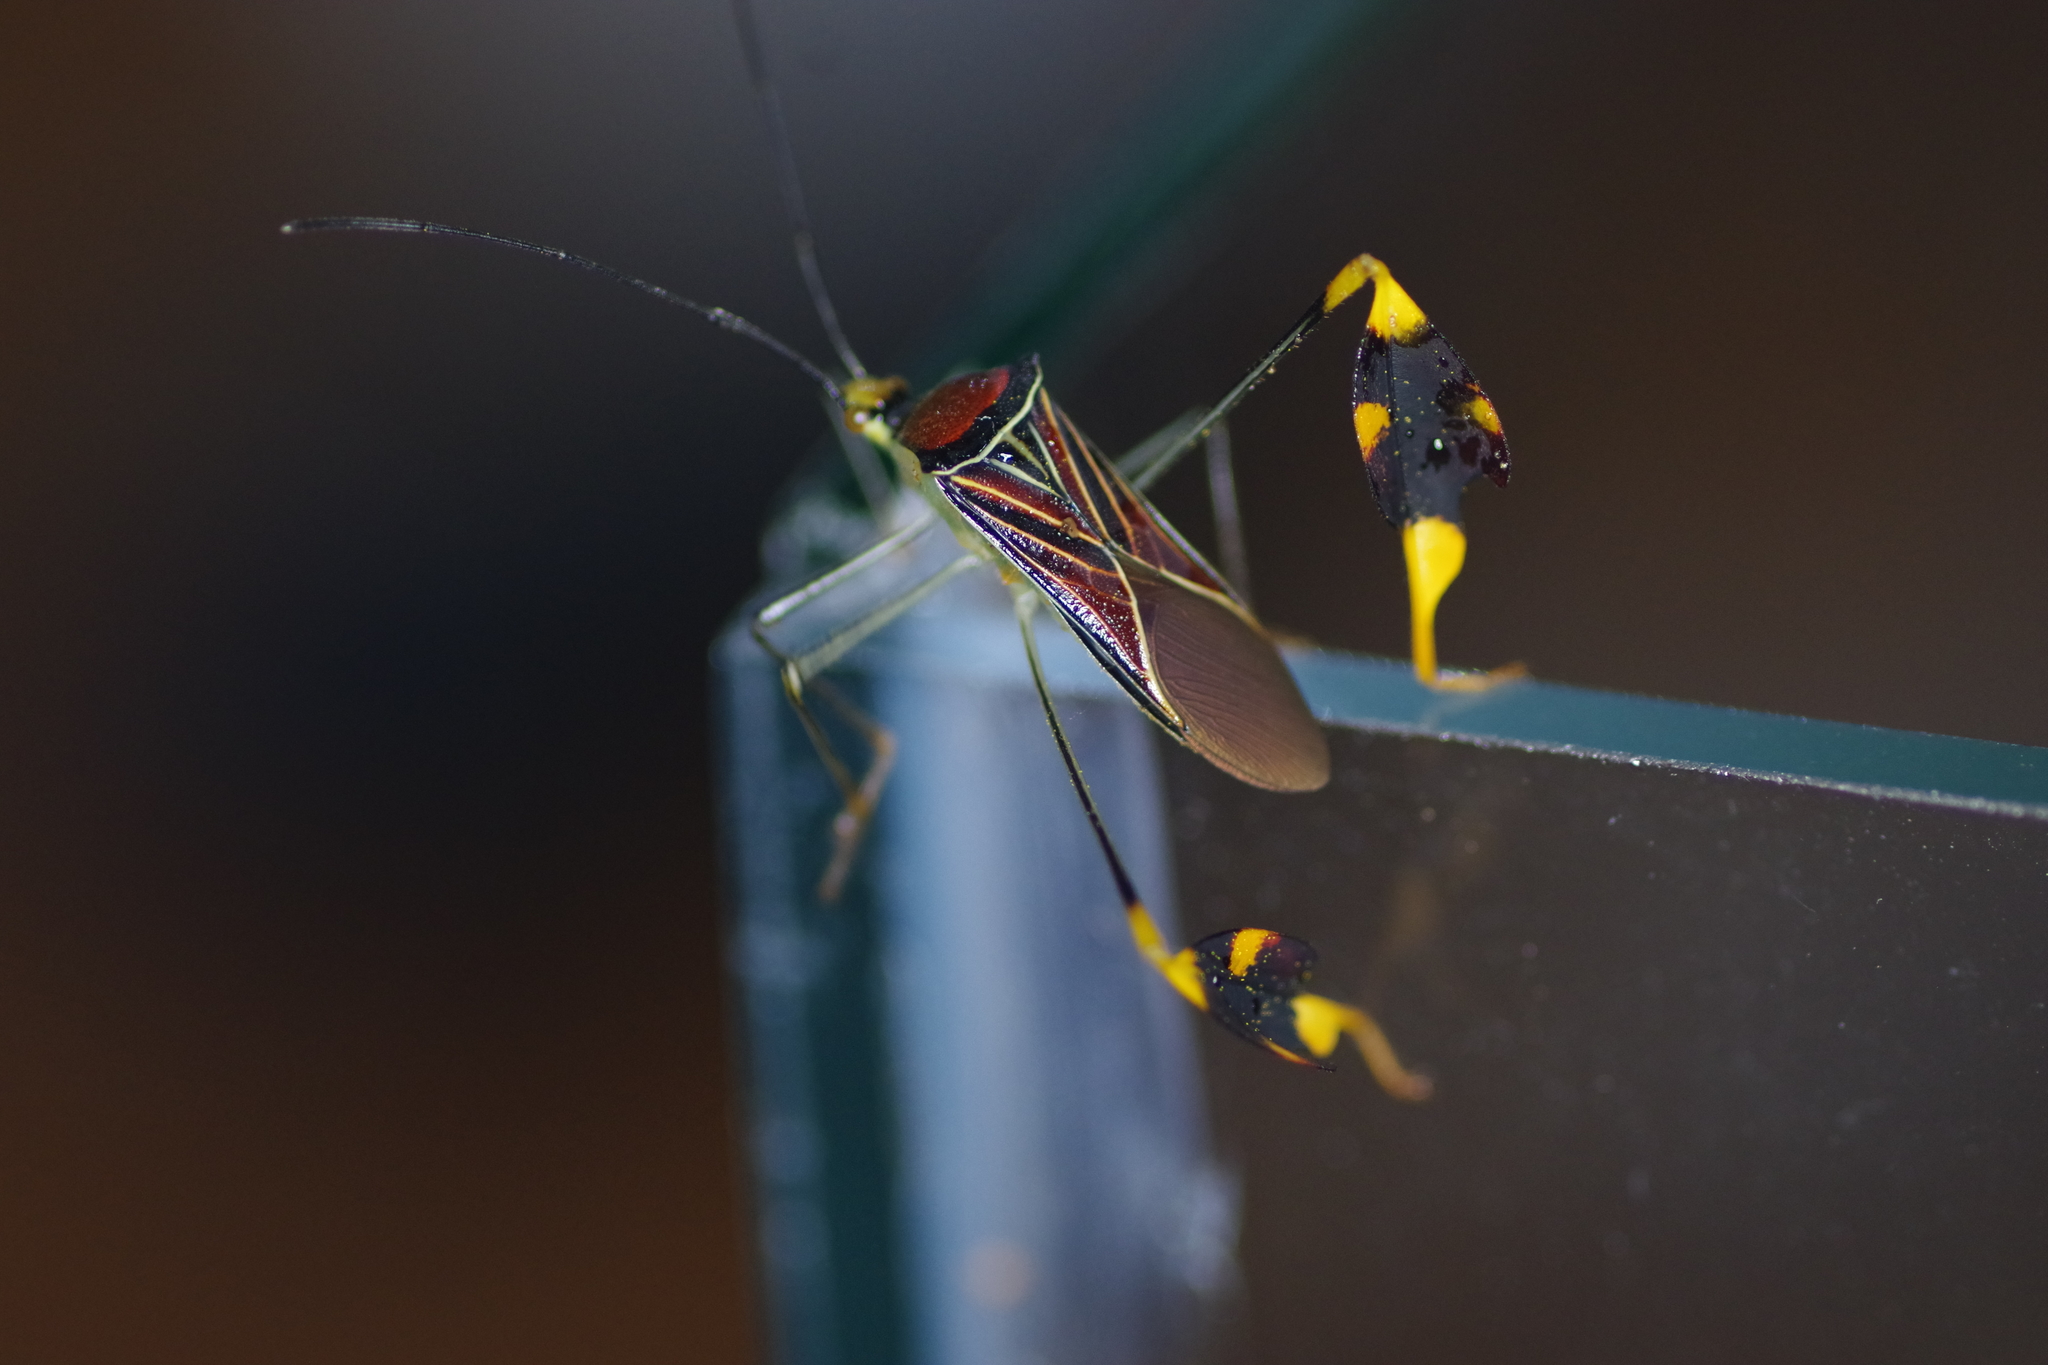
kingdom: Animalia
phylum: Arthropoda
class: Insecta
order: Hemiptera
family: Coreidae
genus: Anisoscelis
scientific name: Anisoscelis gradadius
